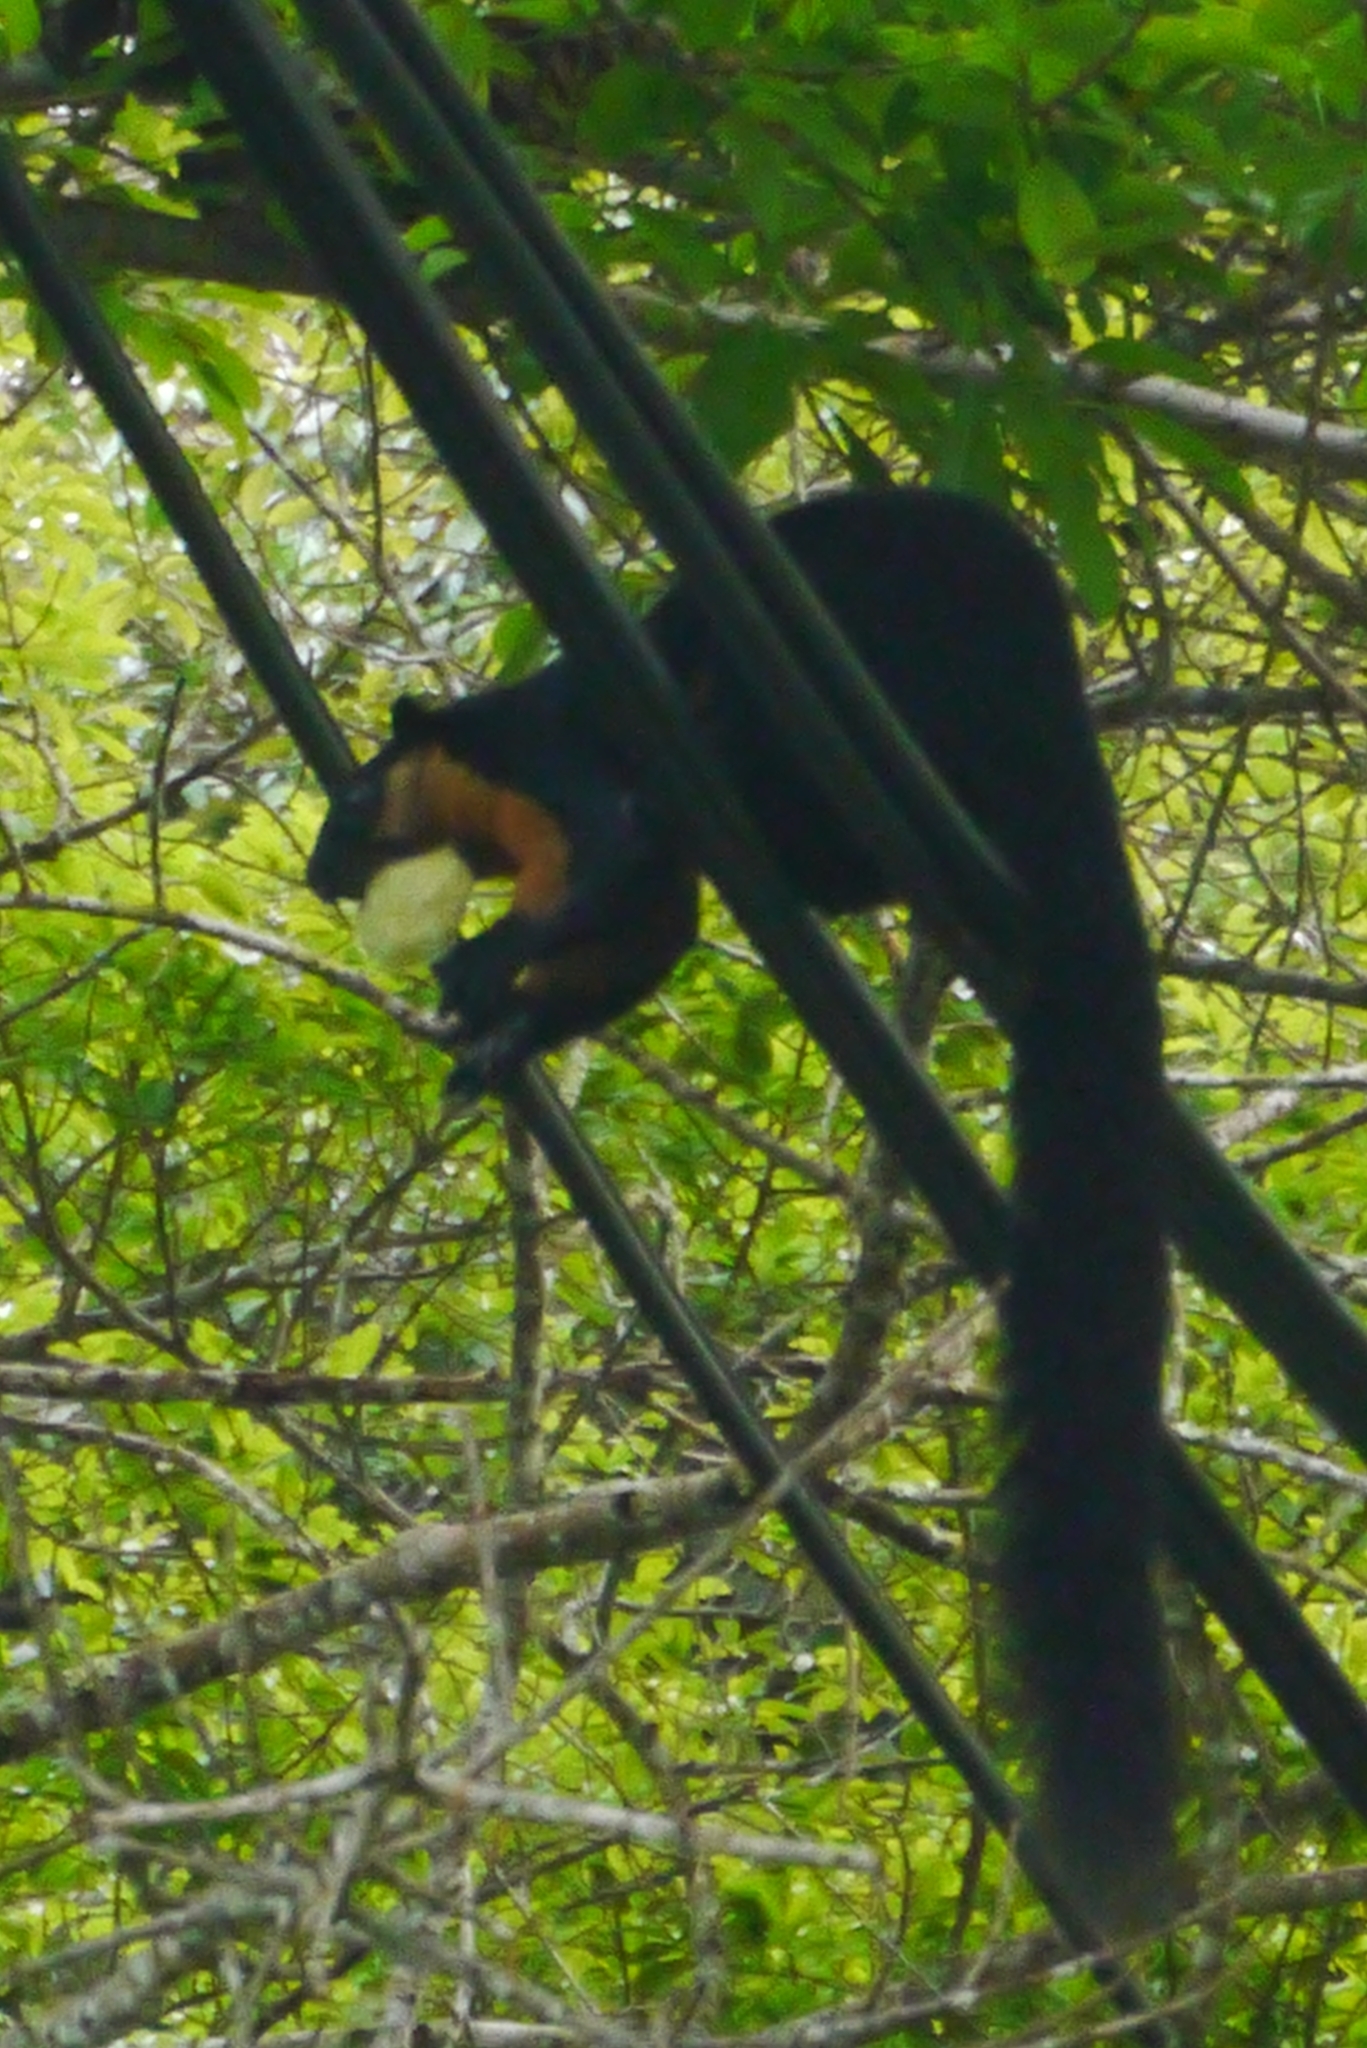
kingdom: Animalia
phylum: Chordata
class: Mammalia
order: Rodentia
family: Sciuridae
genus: Ratufa
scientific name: Ratufa bicolor
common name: Black giant squirrel
